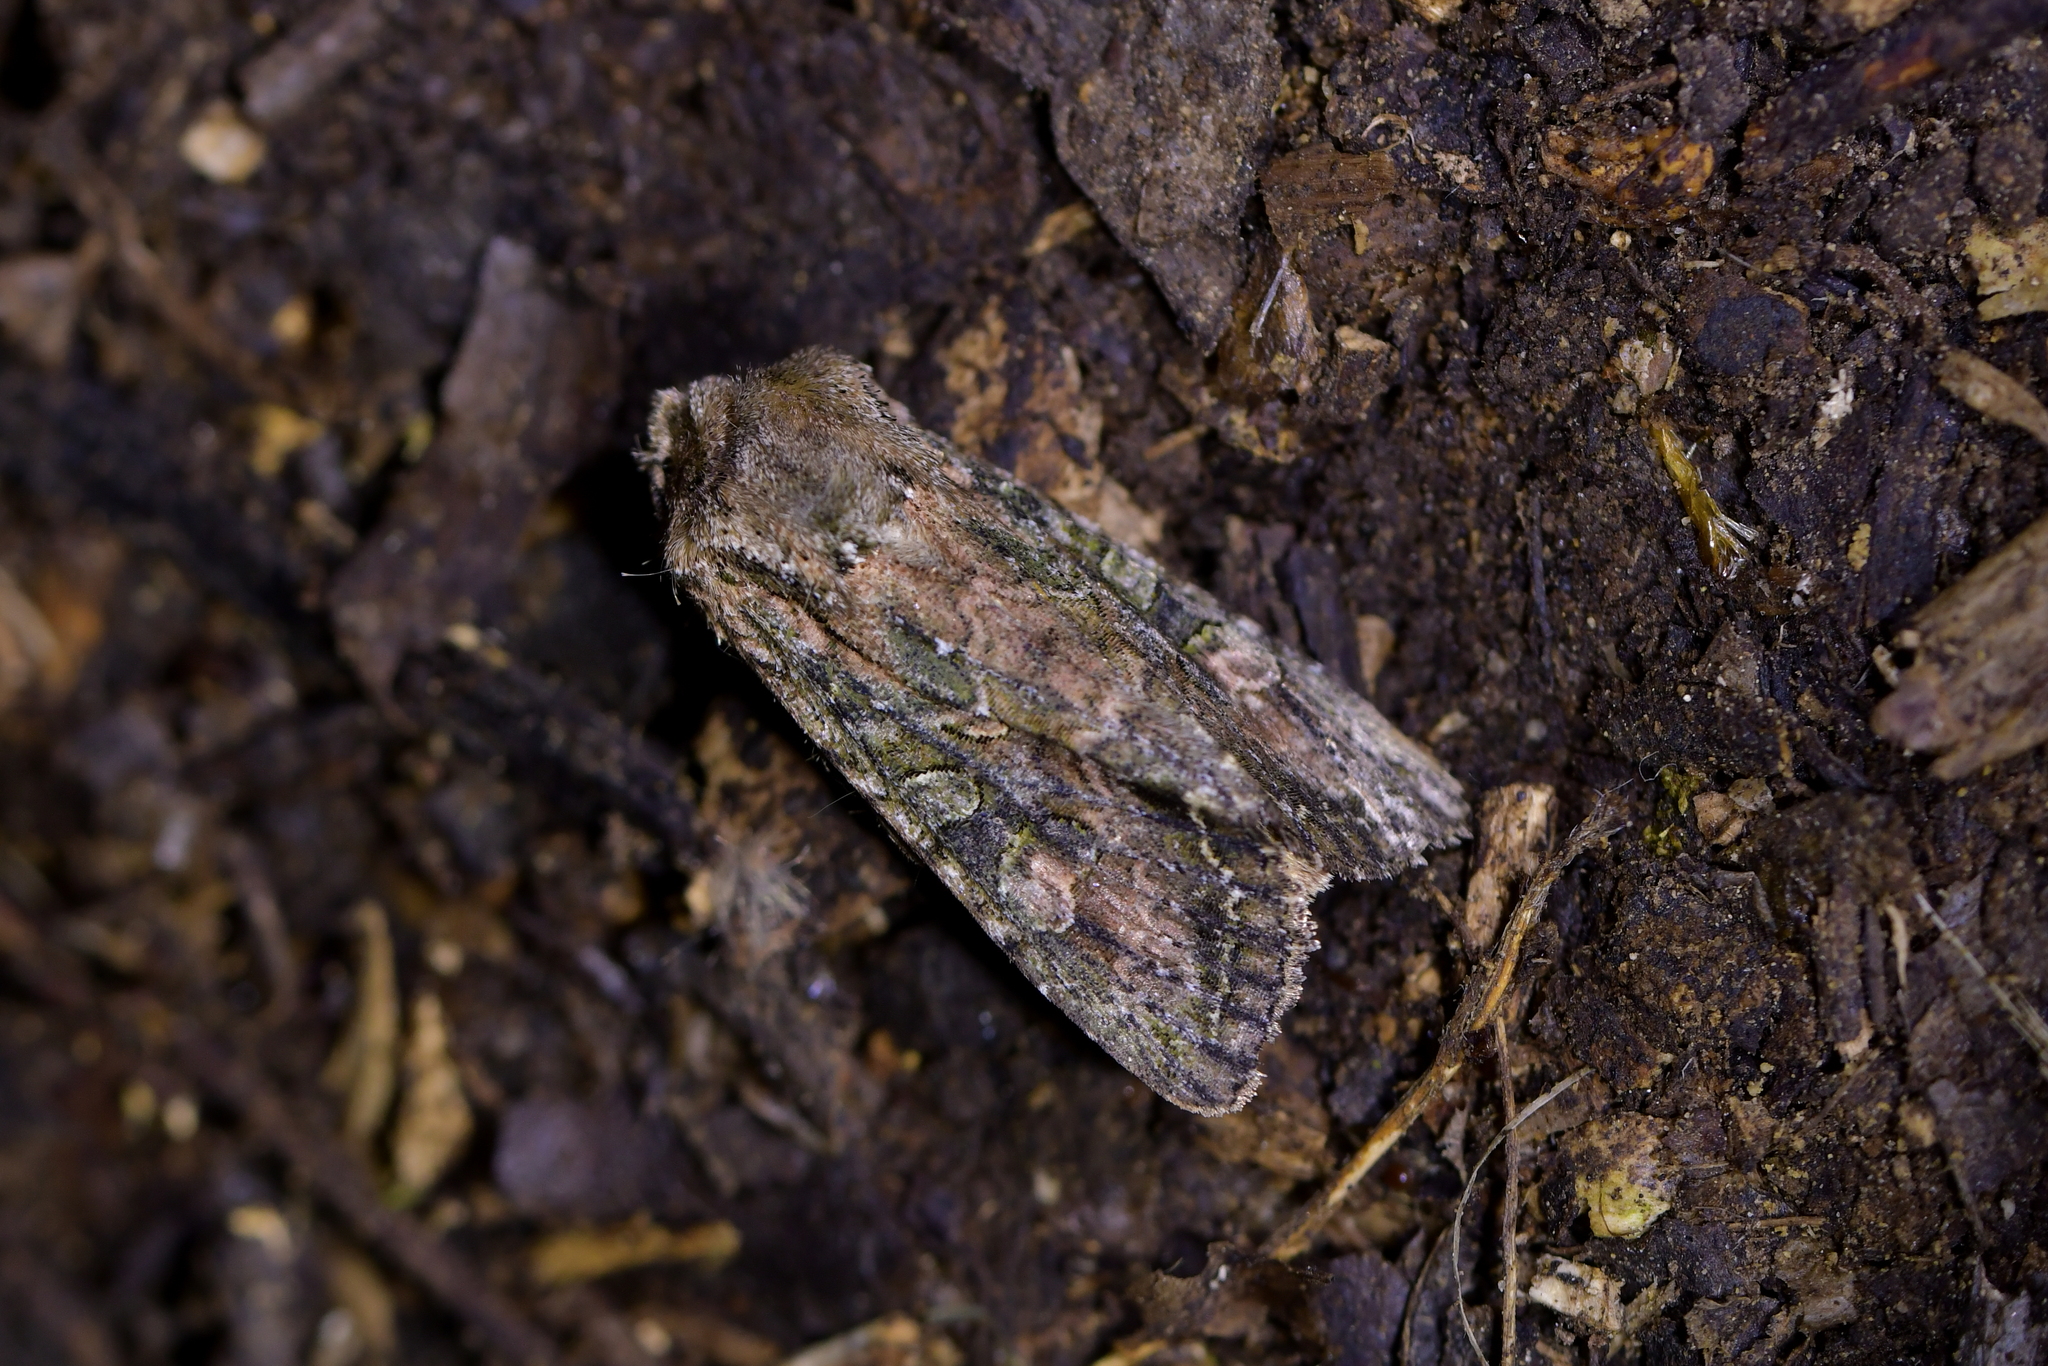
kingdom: Animalia
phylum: Arthropoda
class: Insecta
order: Lepidoptera
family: Noctuidae
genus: Ichneutica
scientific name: Ichneutica mutans
